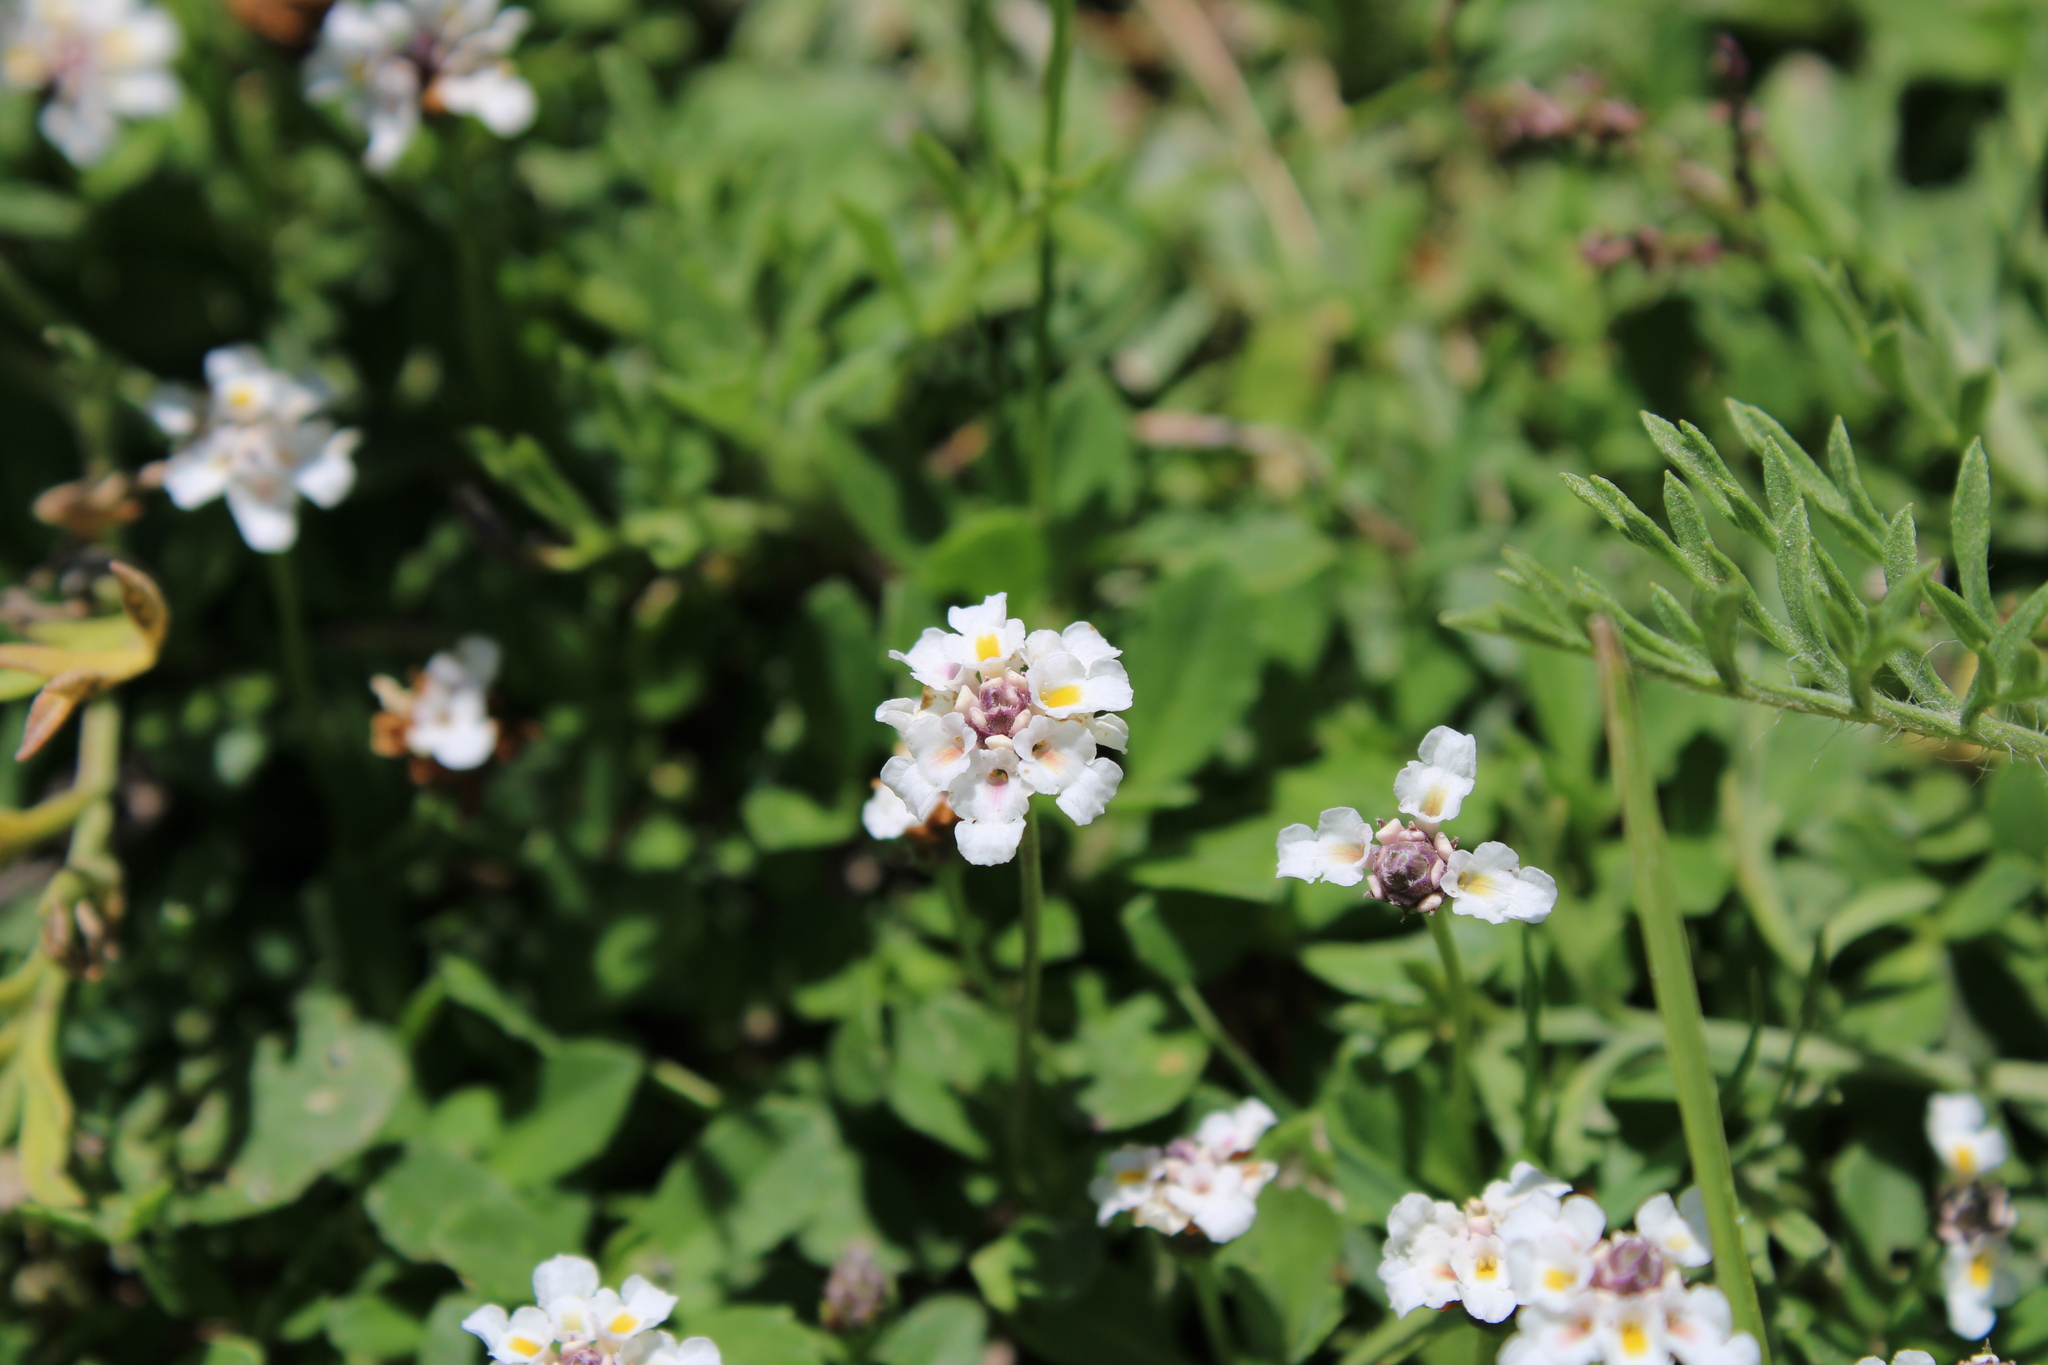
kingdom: Plantae
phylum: Tracheophyta
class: Magnoliopsida
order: Lamiales
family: Verbenaceae
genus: Phyla
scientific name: Phyla nodiflora
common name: Frogfruit
